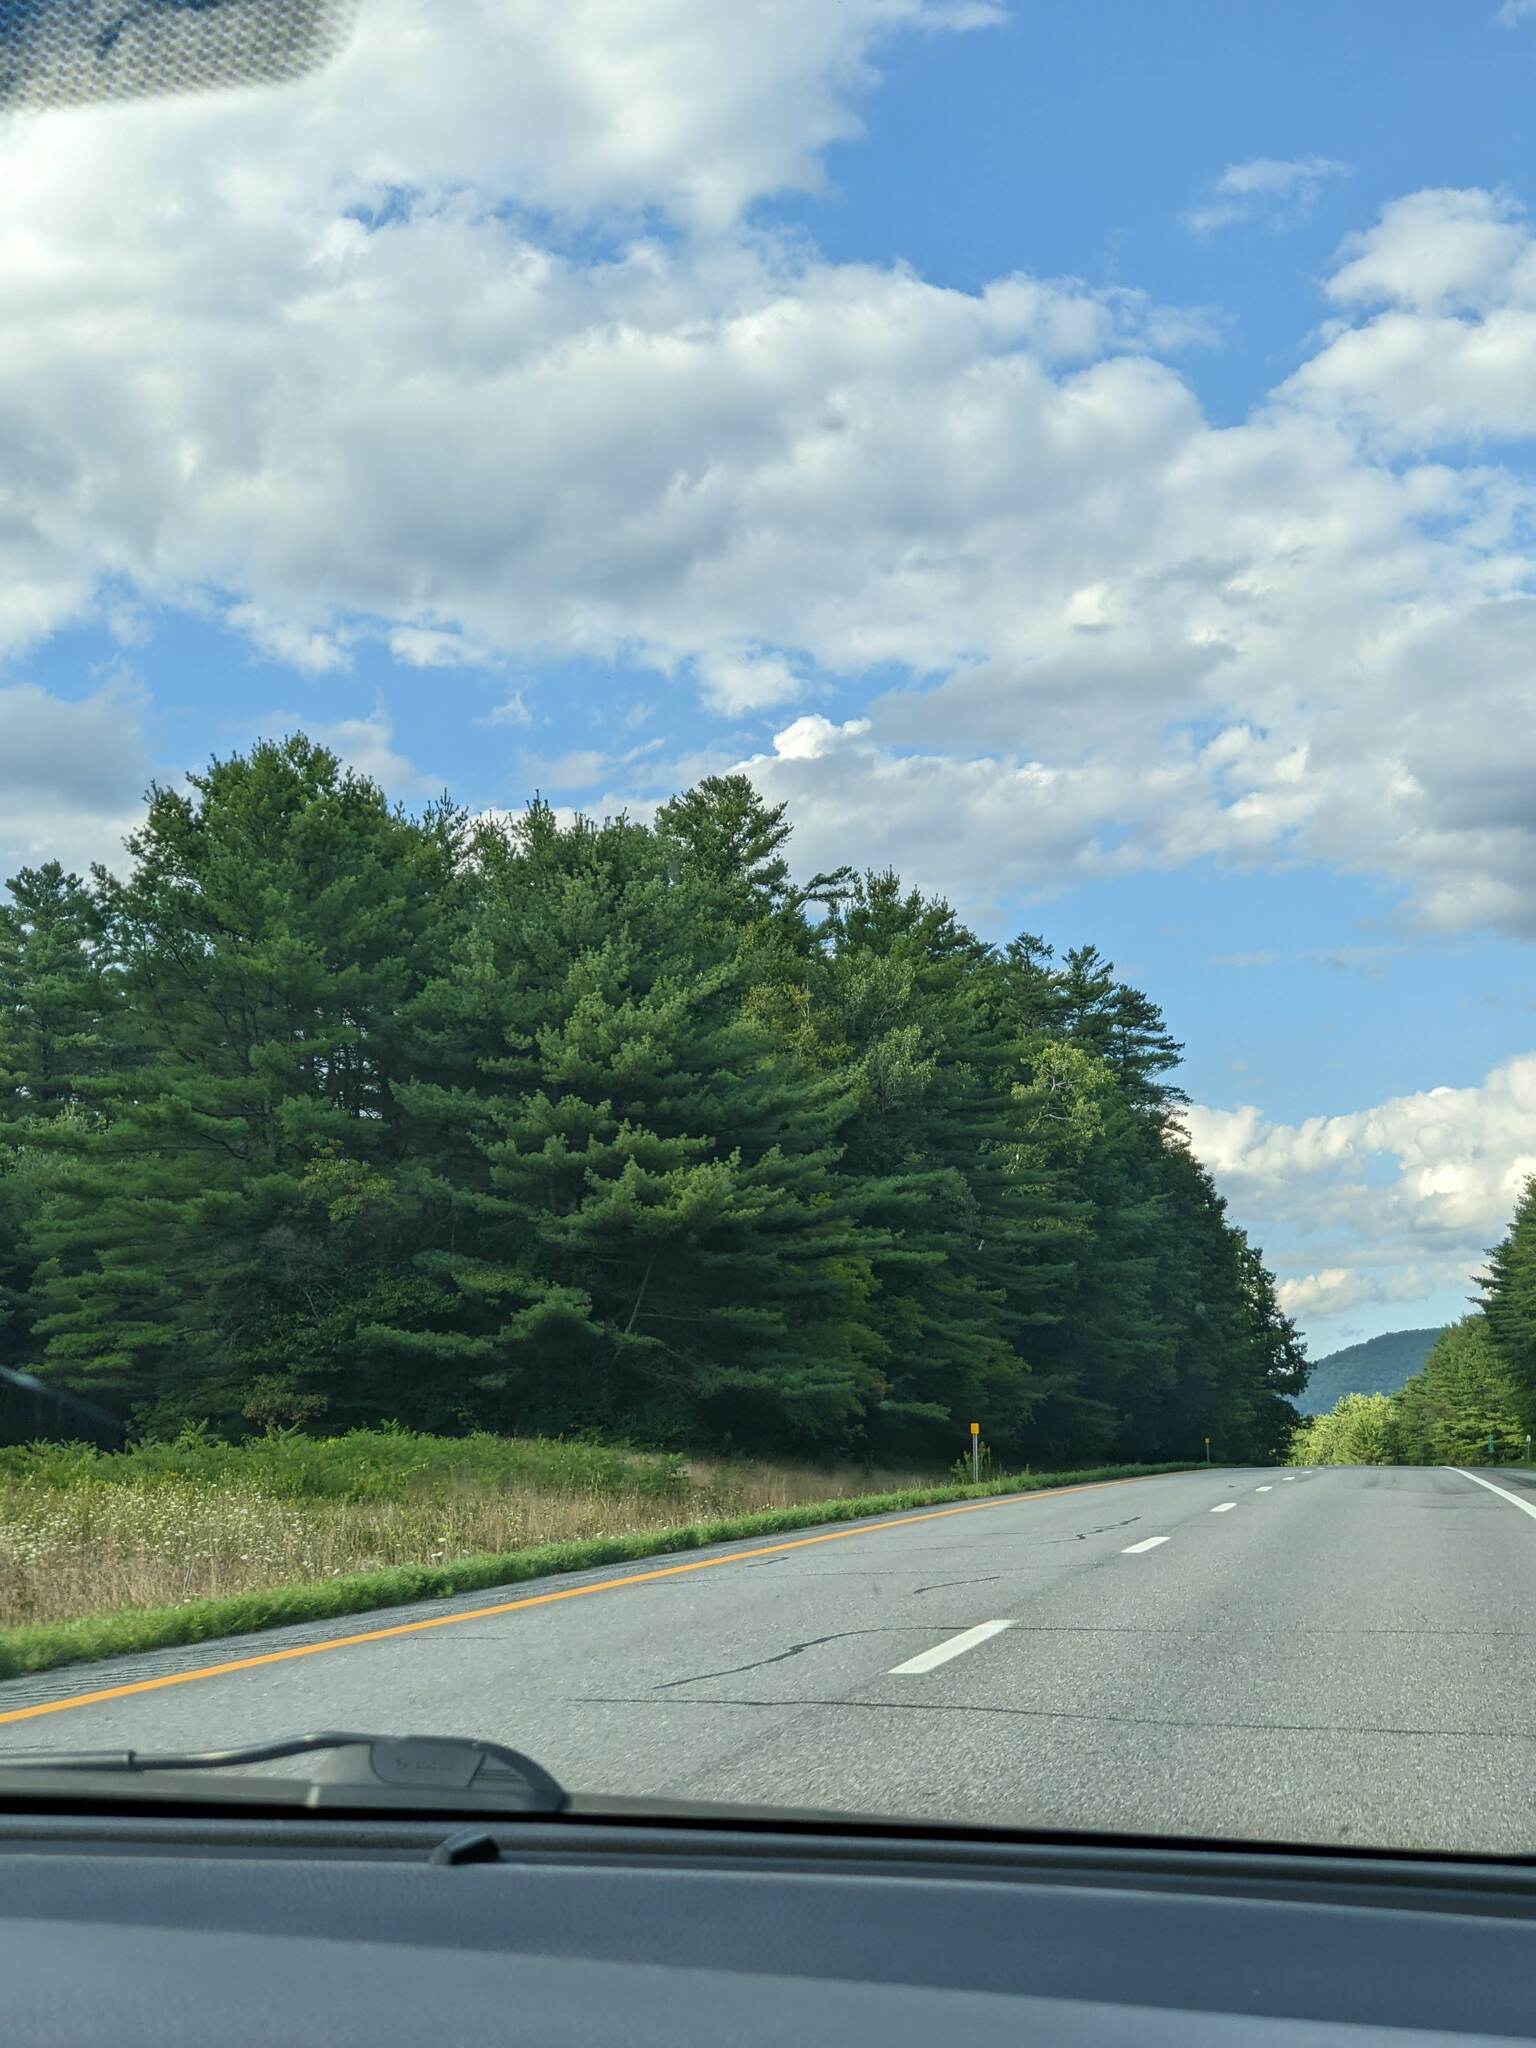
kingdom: Plantae
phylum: Tracheophyta
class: Pinopsida
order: Pinales
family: Pinaceae
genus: Pinus
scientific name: Pinus strobus
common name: Weymouth pine
